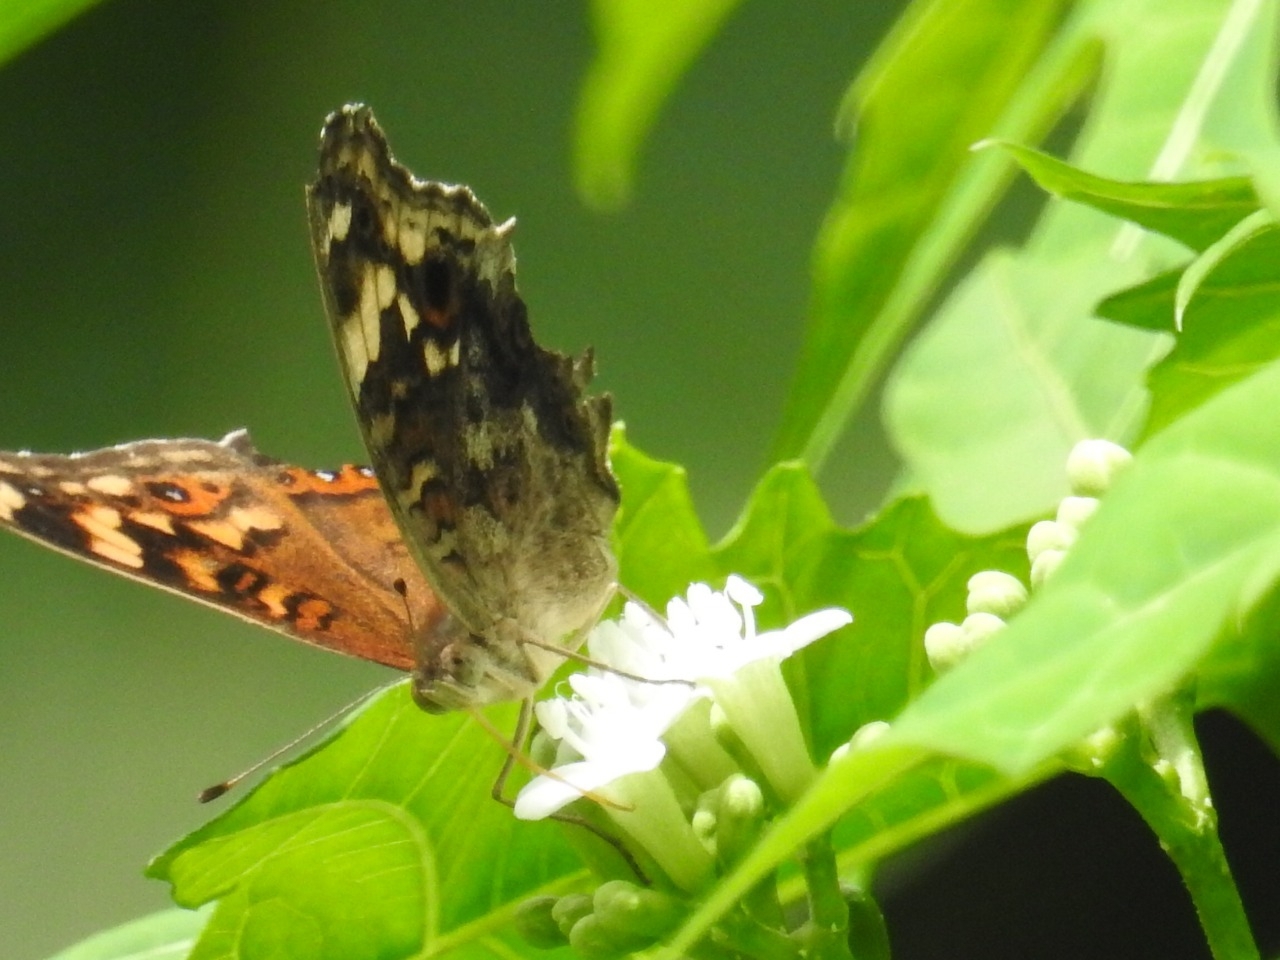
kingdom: Animalia
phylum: Arthropoda
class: Insecta
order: Lepidoptera
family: Nymphalidae
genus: Junonia
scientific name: Junonia erigone
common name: Northern argus
